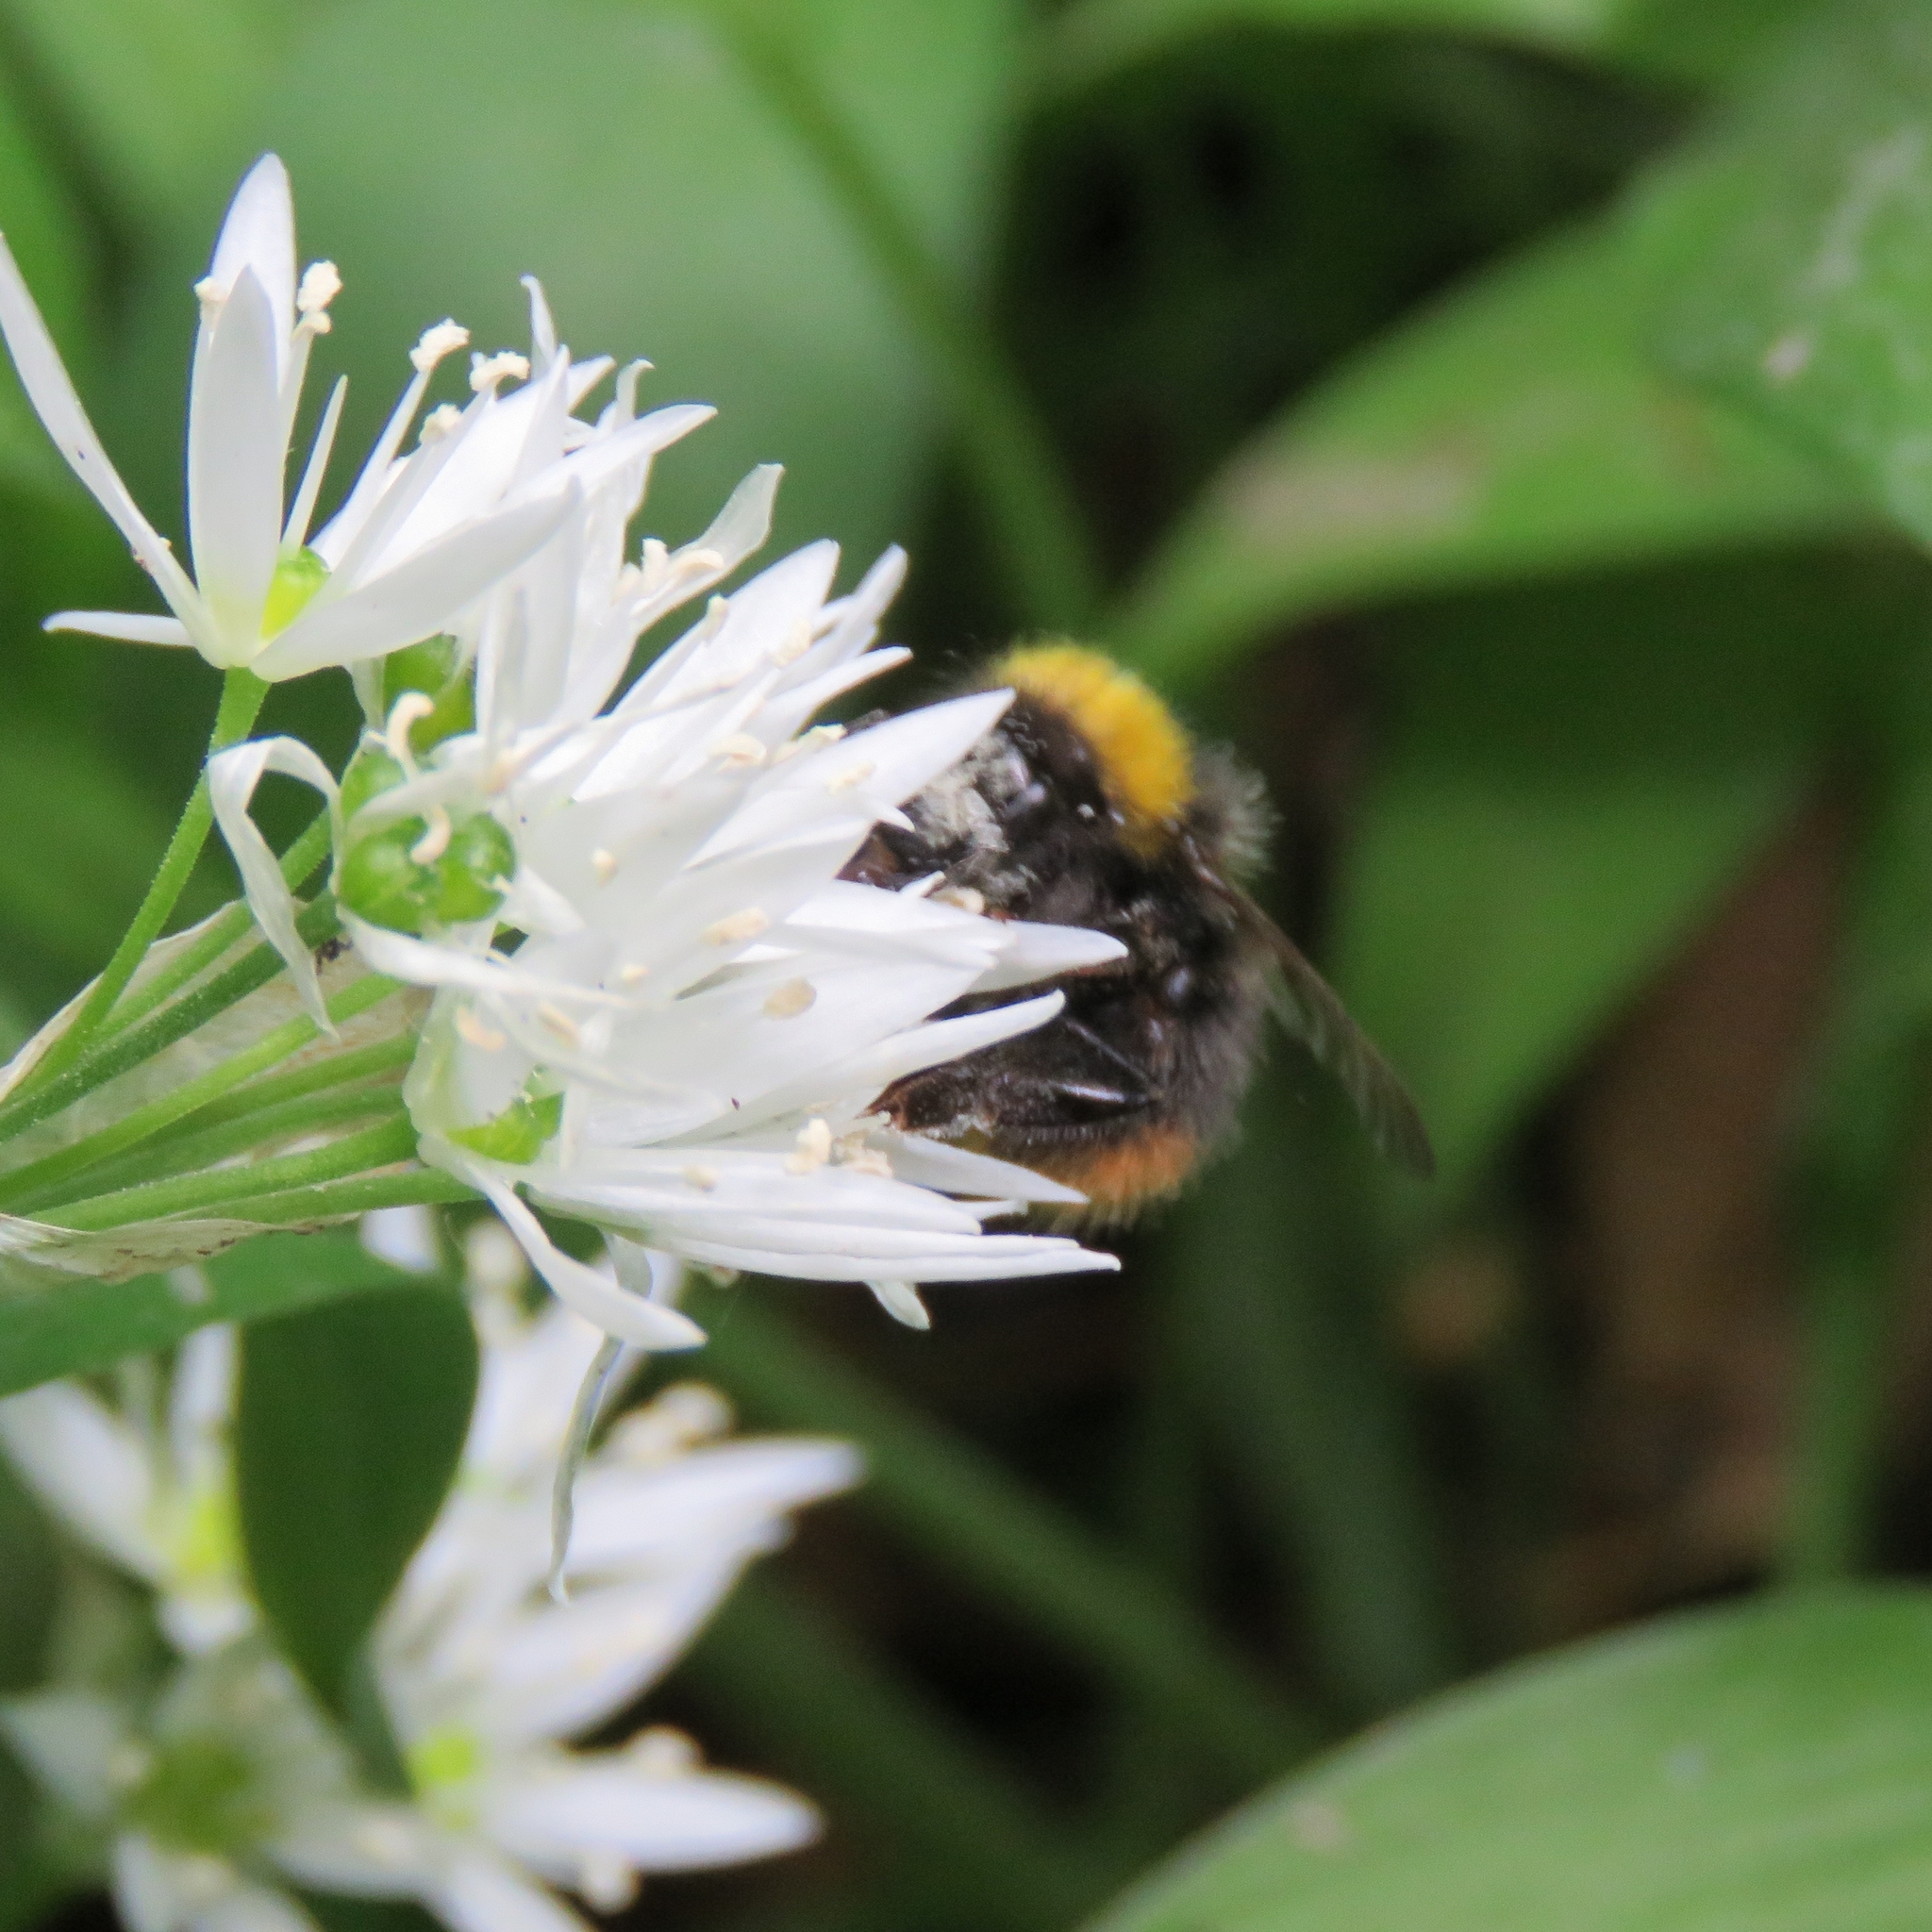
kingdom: Animalia
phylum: Arthropoda
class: Insecta
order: Hymenoptera
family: Apidae
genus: Bombus
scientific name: Bombus pratorum
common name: Early humble-bee
